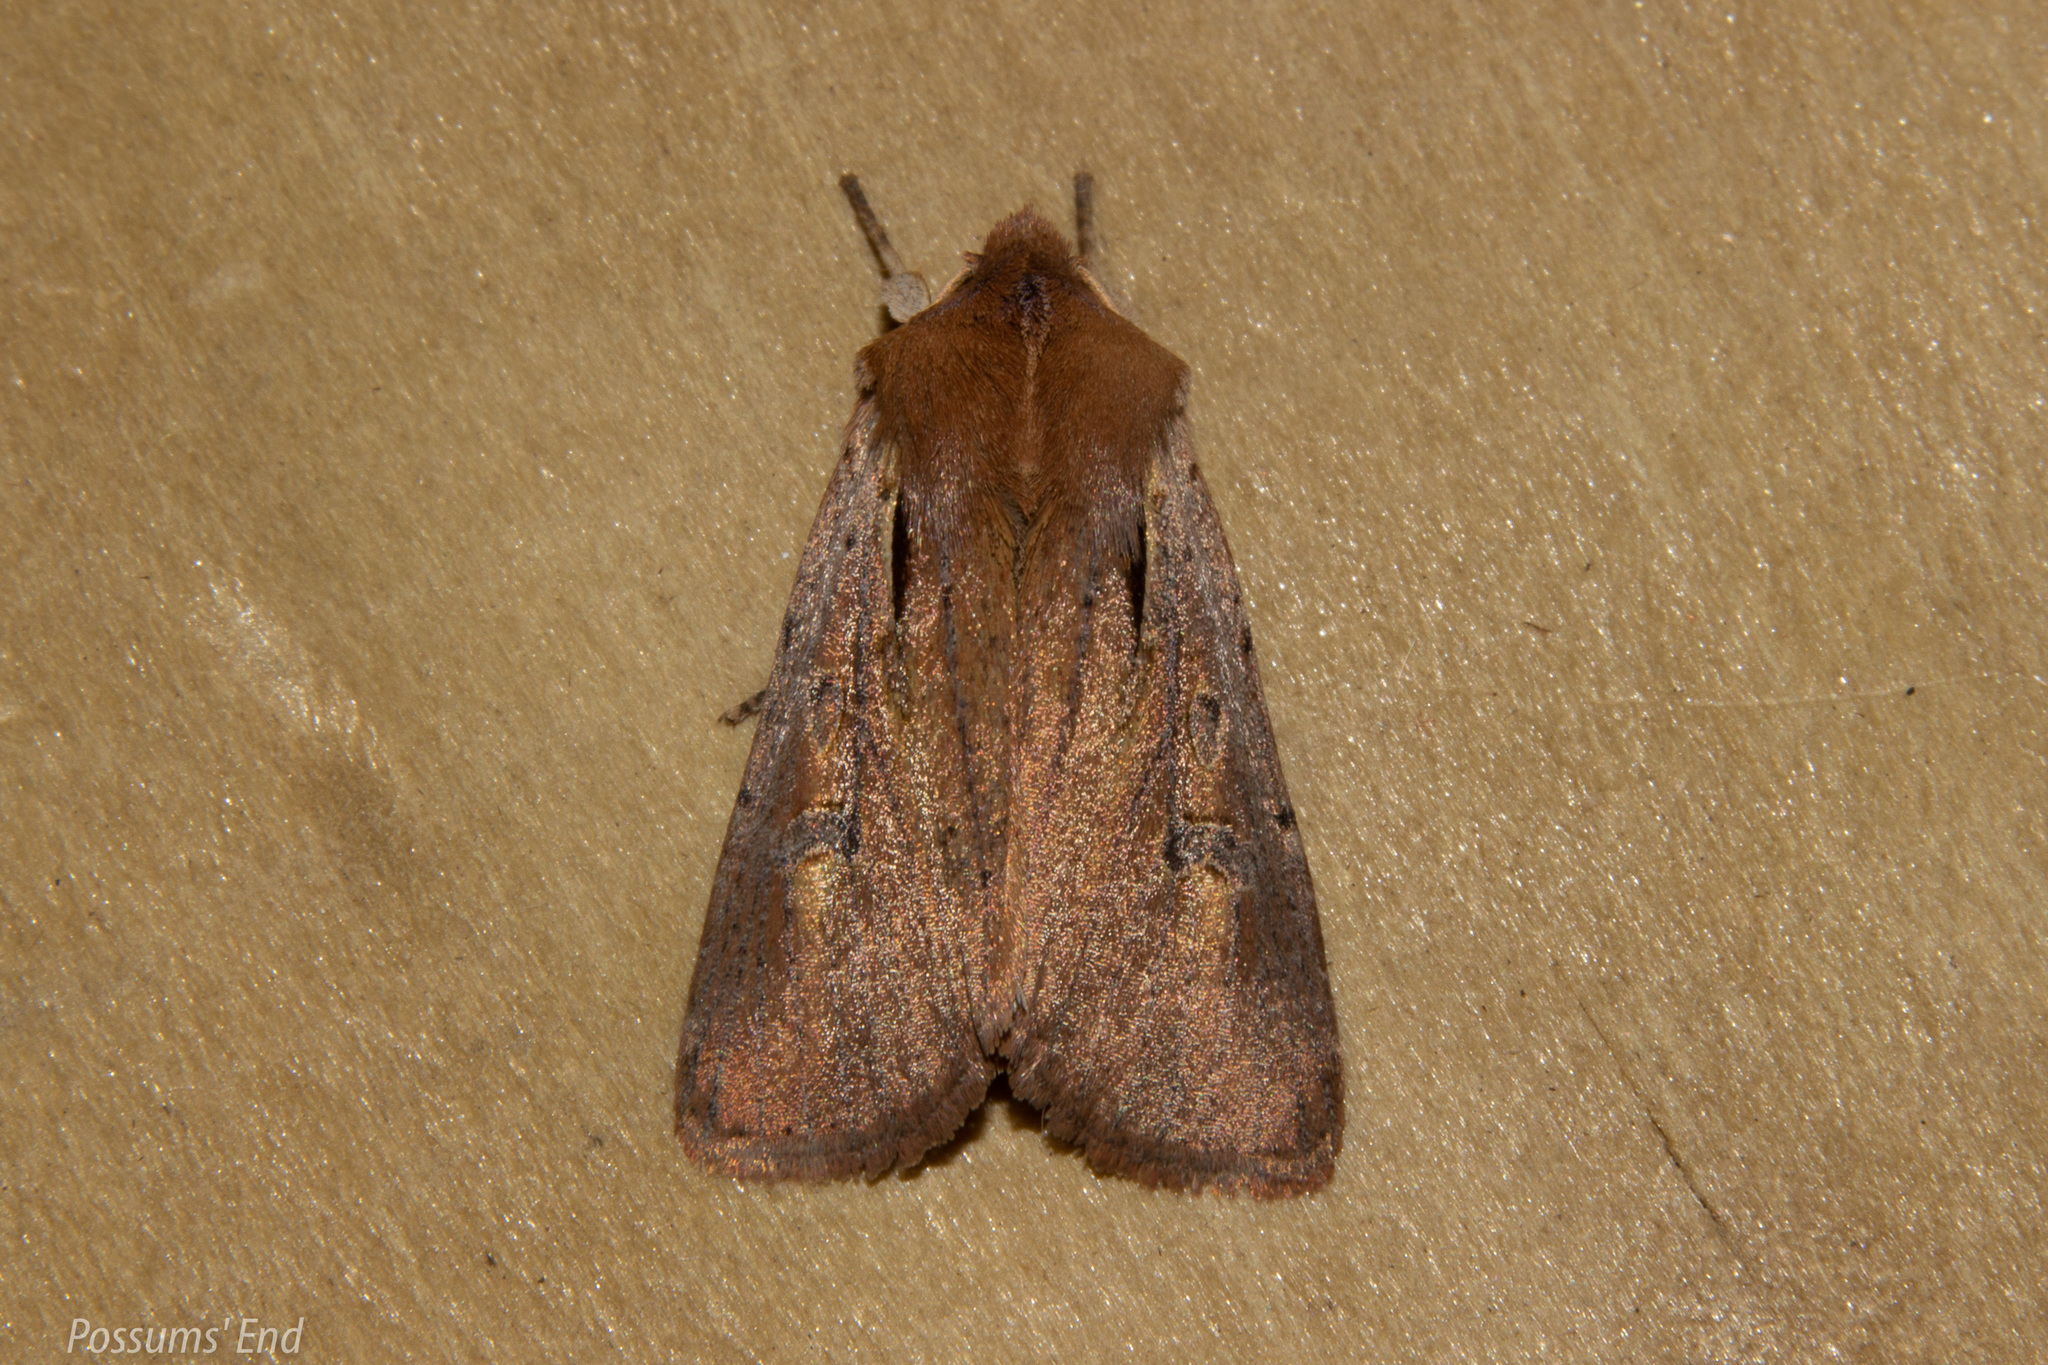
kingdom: Animalia
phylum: Arthropoda
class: Insecta
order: Lepidoptera
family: Noctuidae
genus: Ichneutica
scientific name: Ichneutica atristriga
